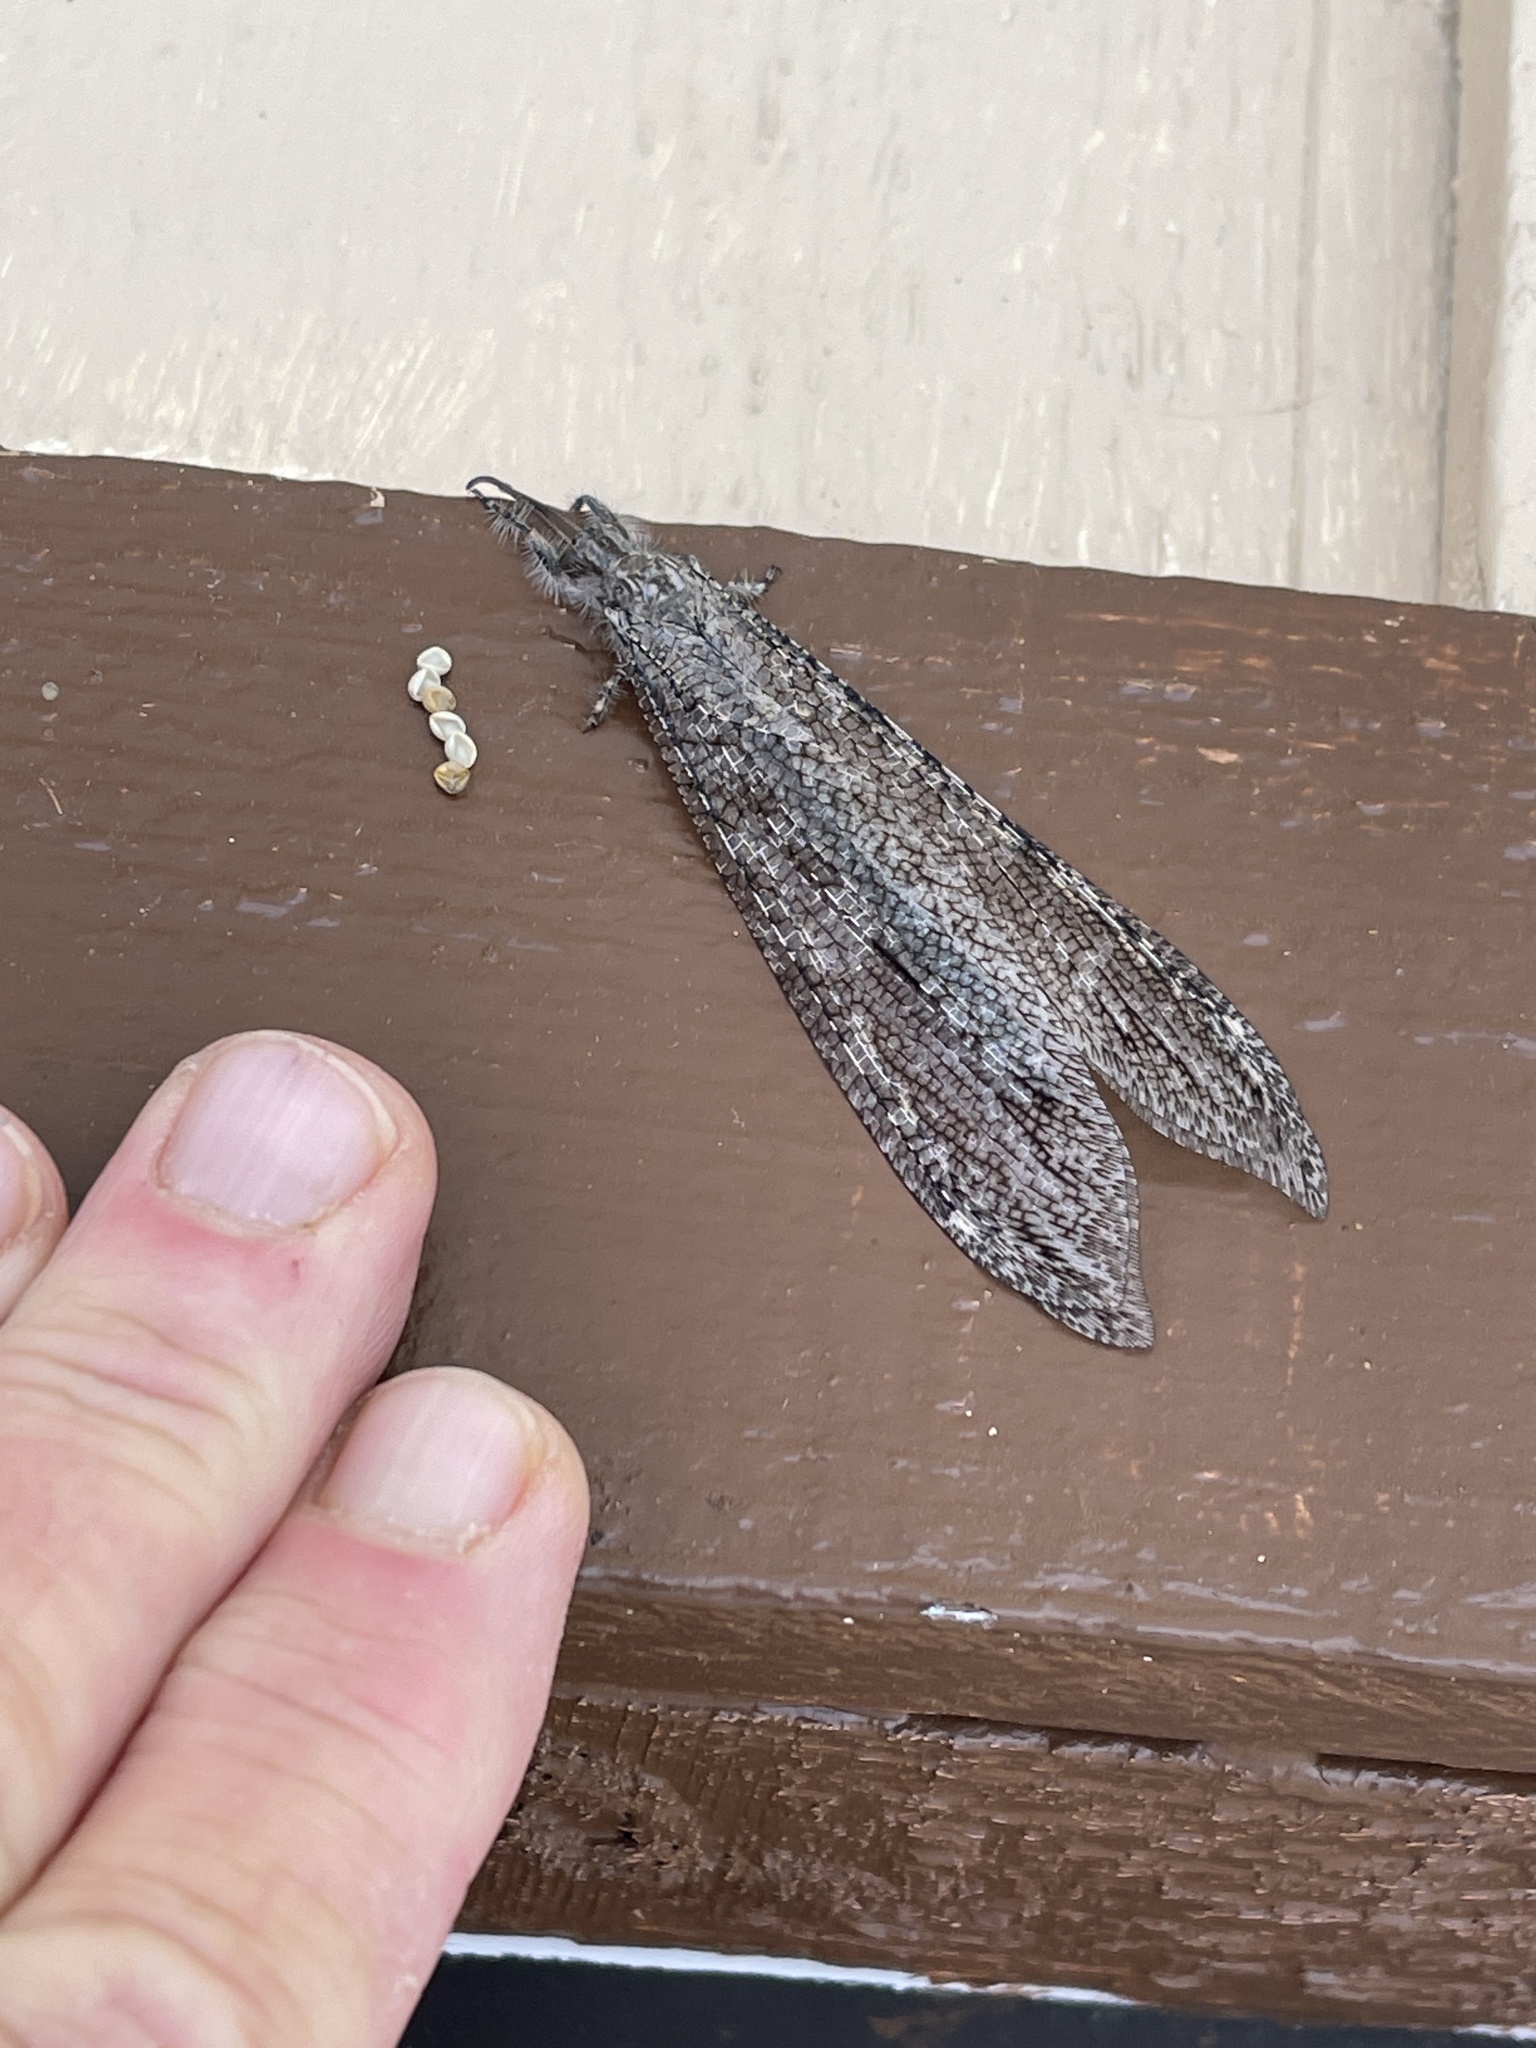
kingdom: Animalia
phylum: Arthropoda
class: Insecta
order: Neuroptera
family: Myrmeleontidae
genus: Vella
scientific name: Vella fallax
